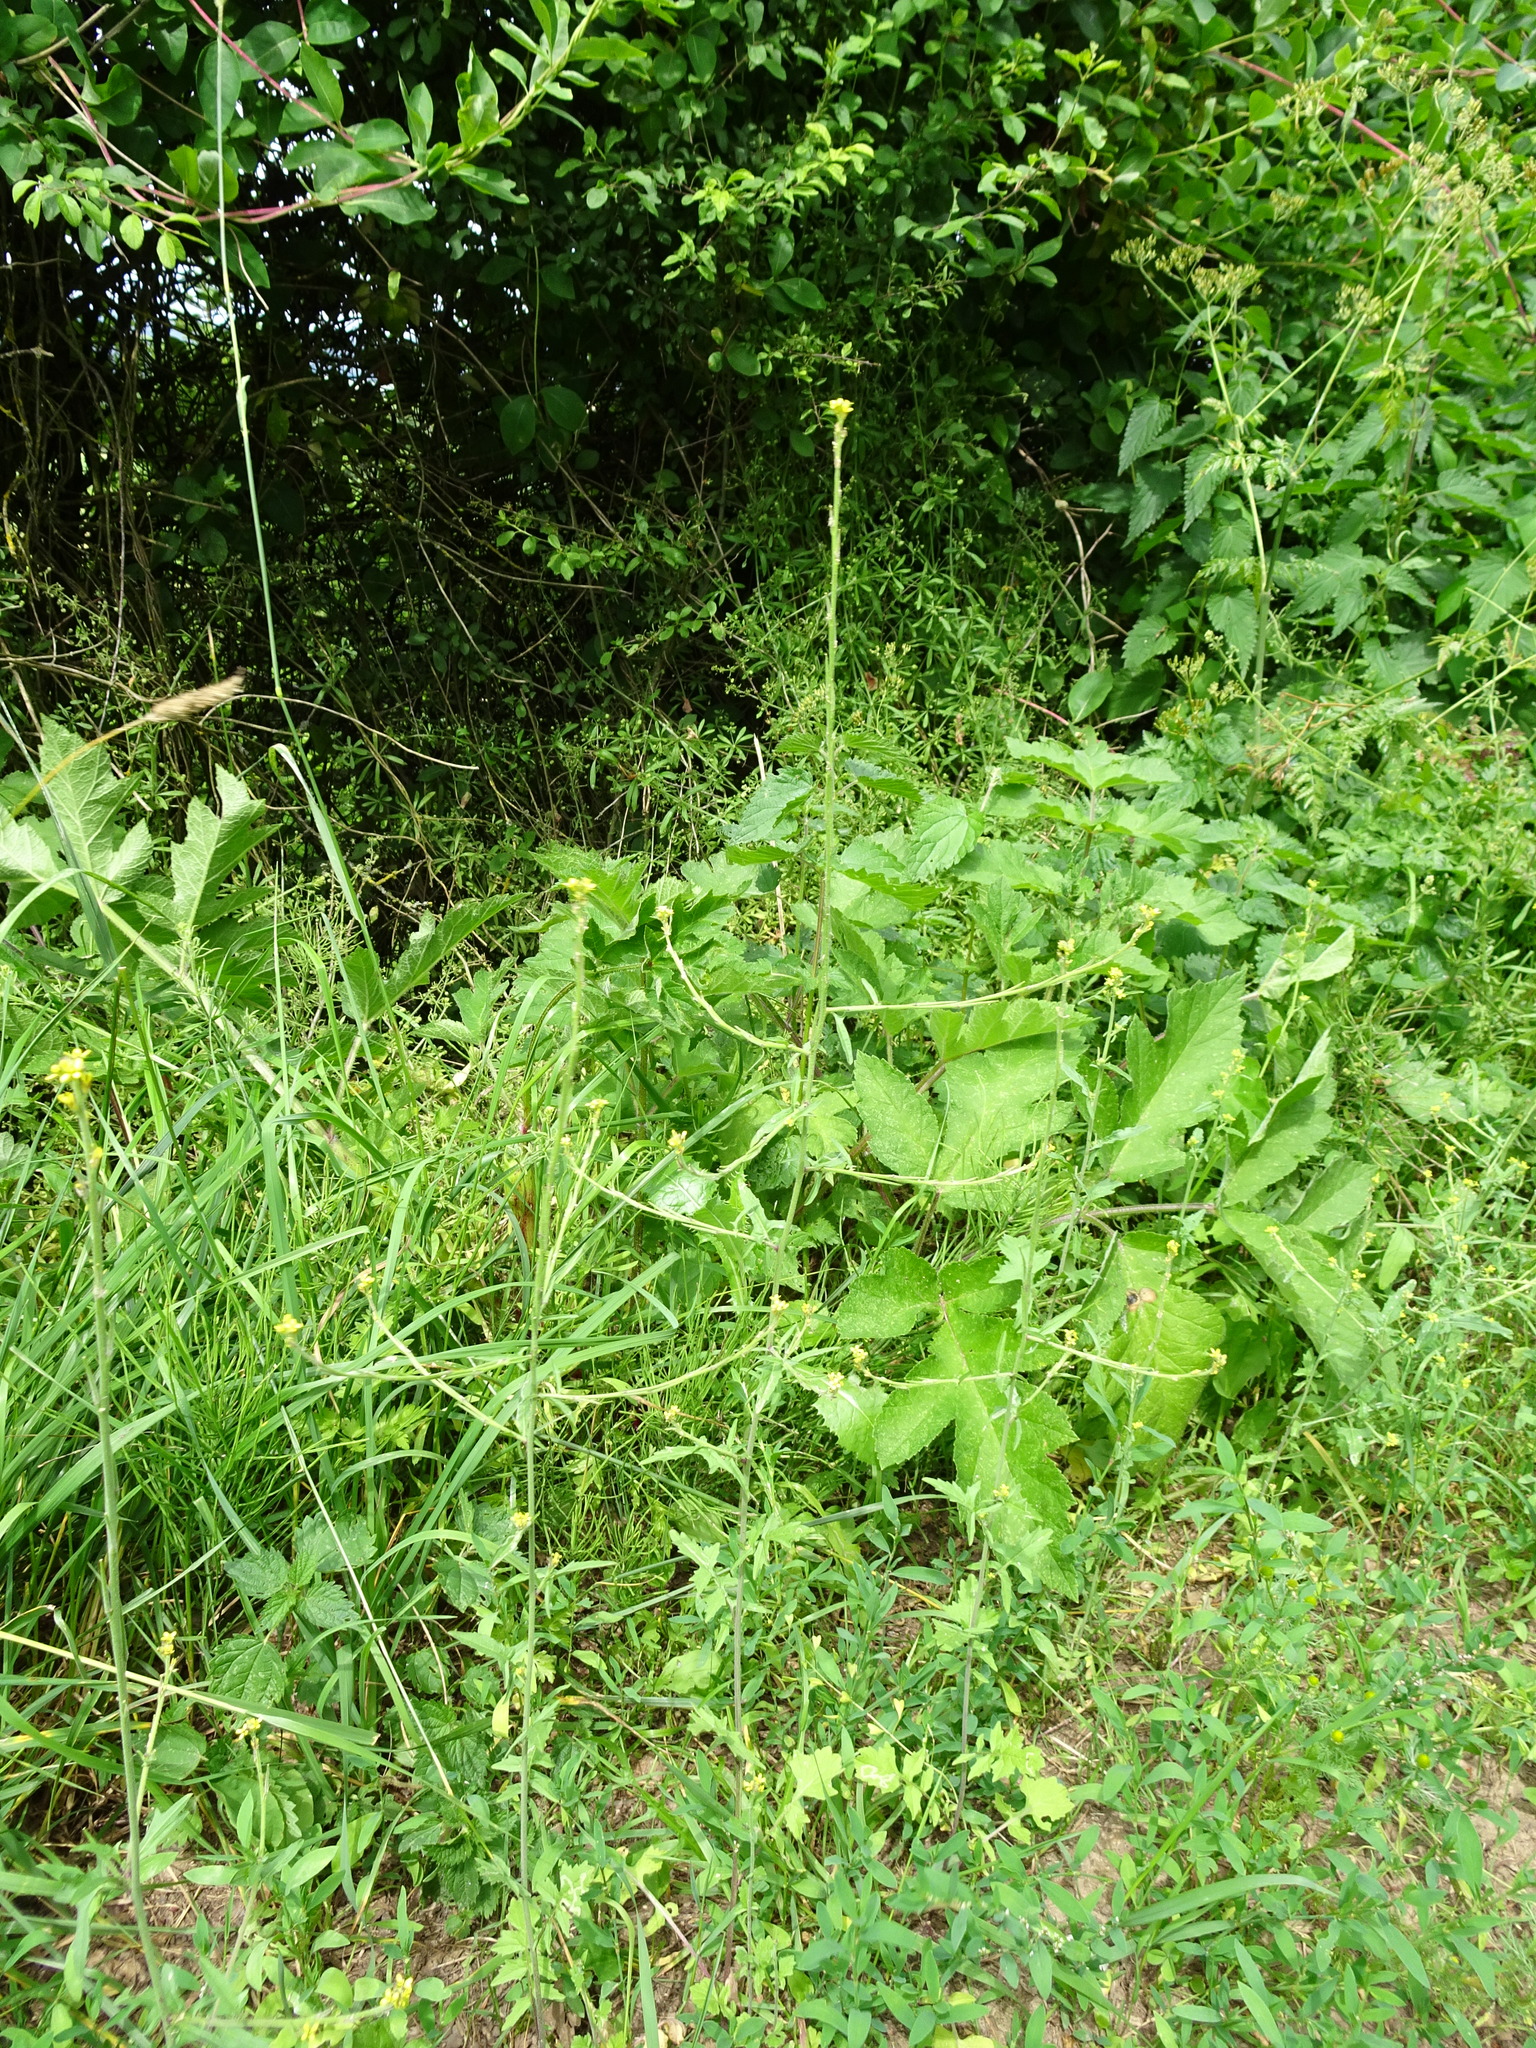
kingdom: Plantae
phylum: Tracheophyta
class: Magnoliopsida
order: Brassicales
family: Brassicaceae
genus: Sisymbrium
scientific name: Sisymbrium officinale
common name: Hedge mustard
